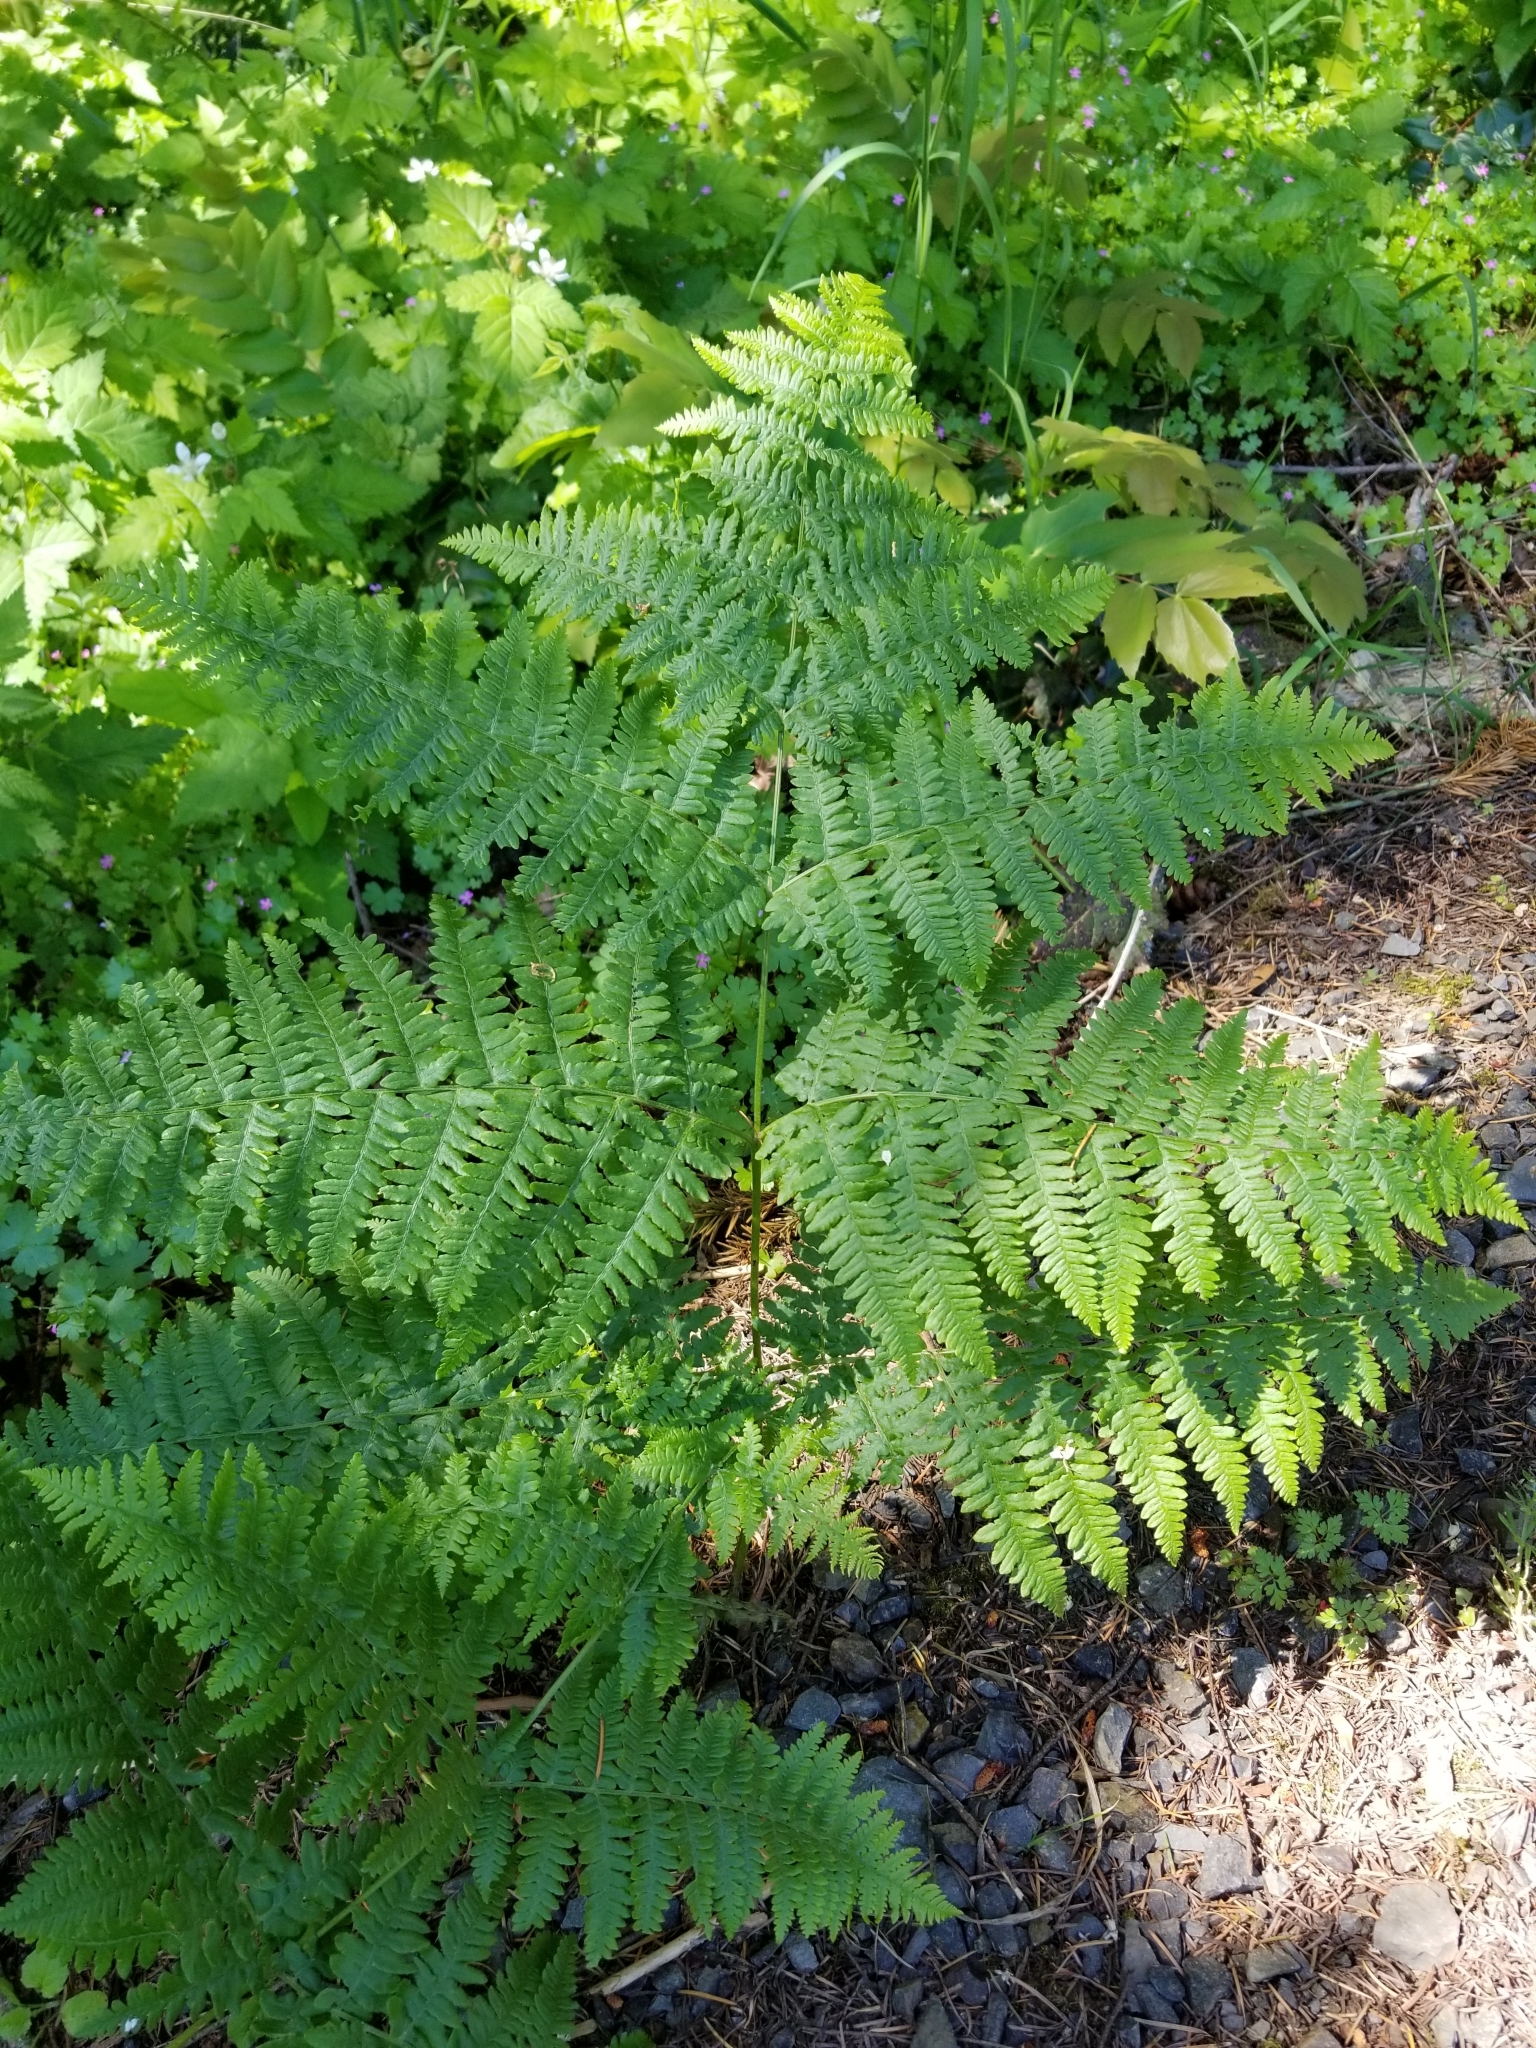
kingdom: Plantae
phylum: Tracheophyta
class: Polypodiopsida
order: Polypodiales
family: Dennstaedtiaceae
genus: Pteridium
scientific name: Pteridium aquilinum
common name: Bracken
